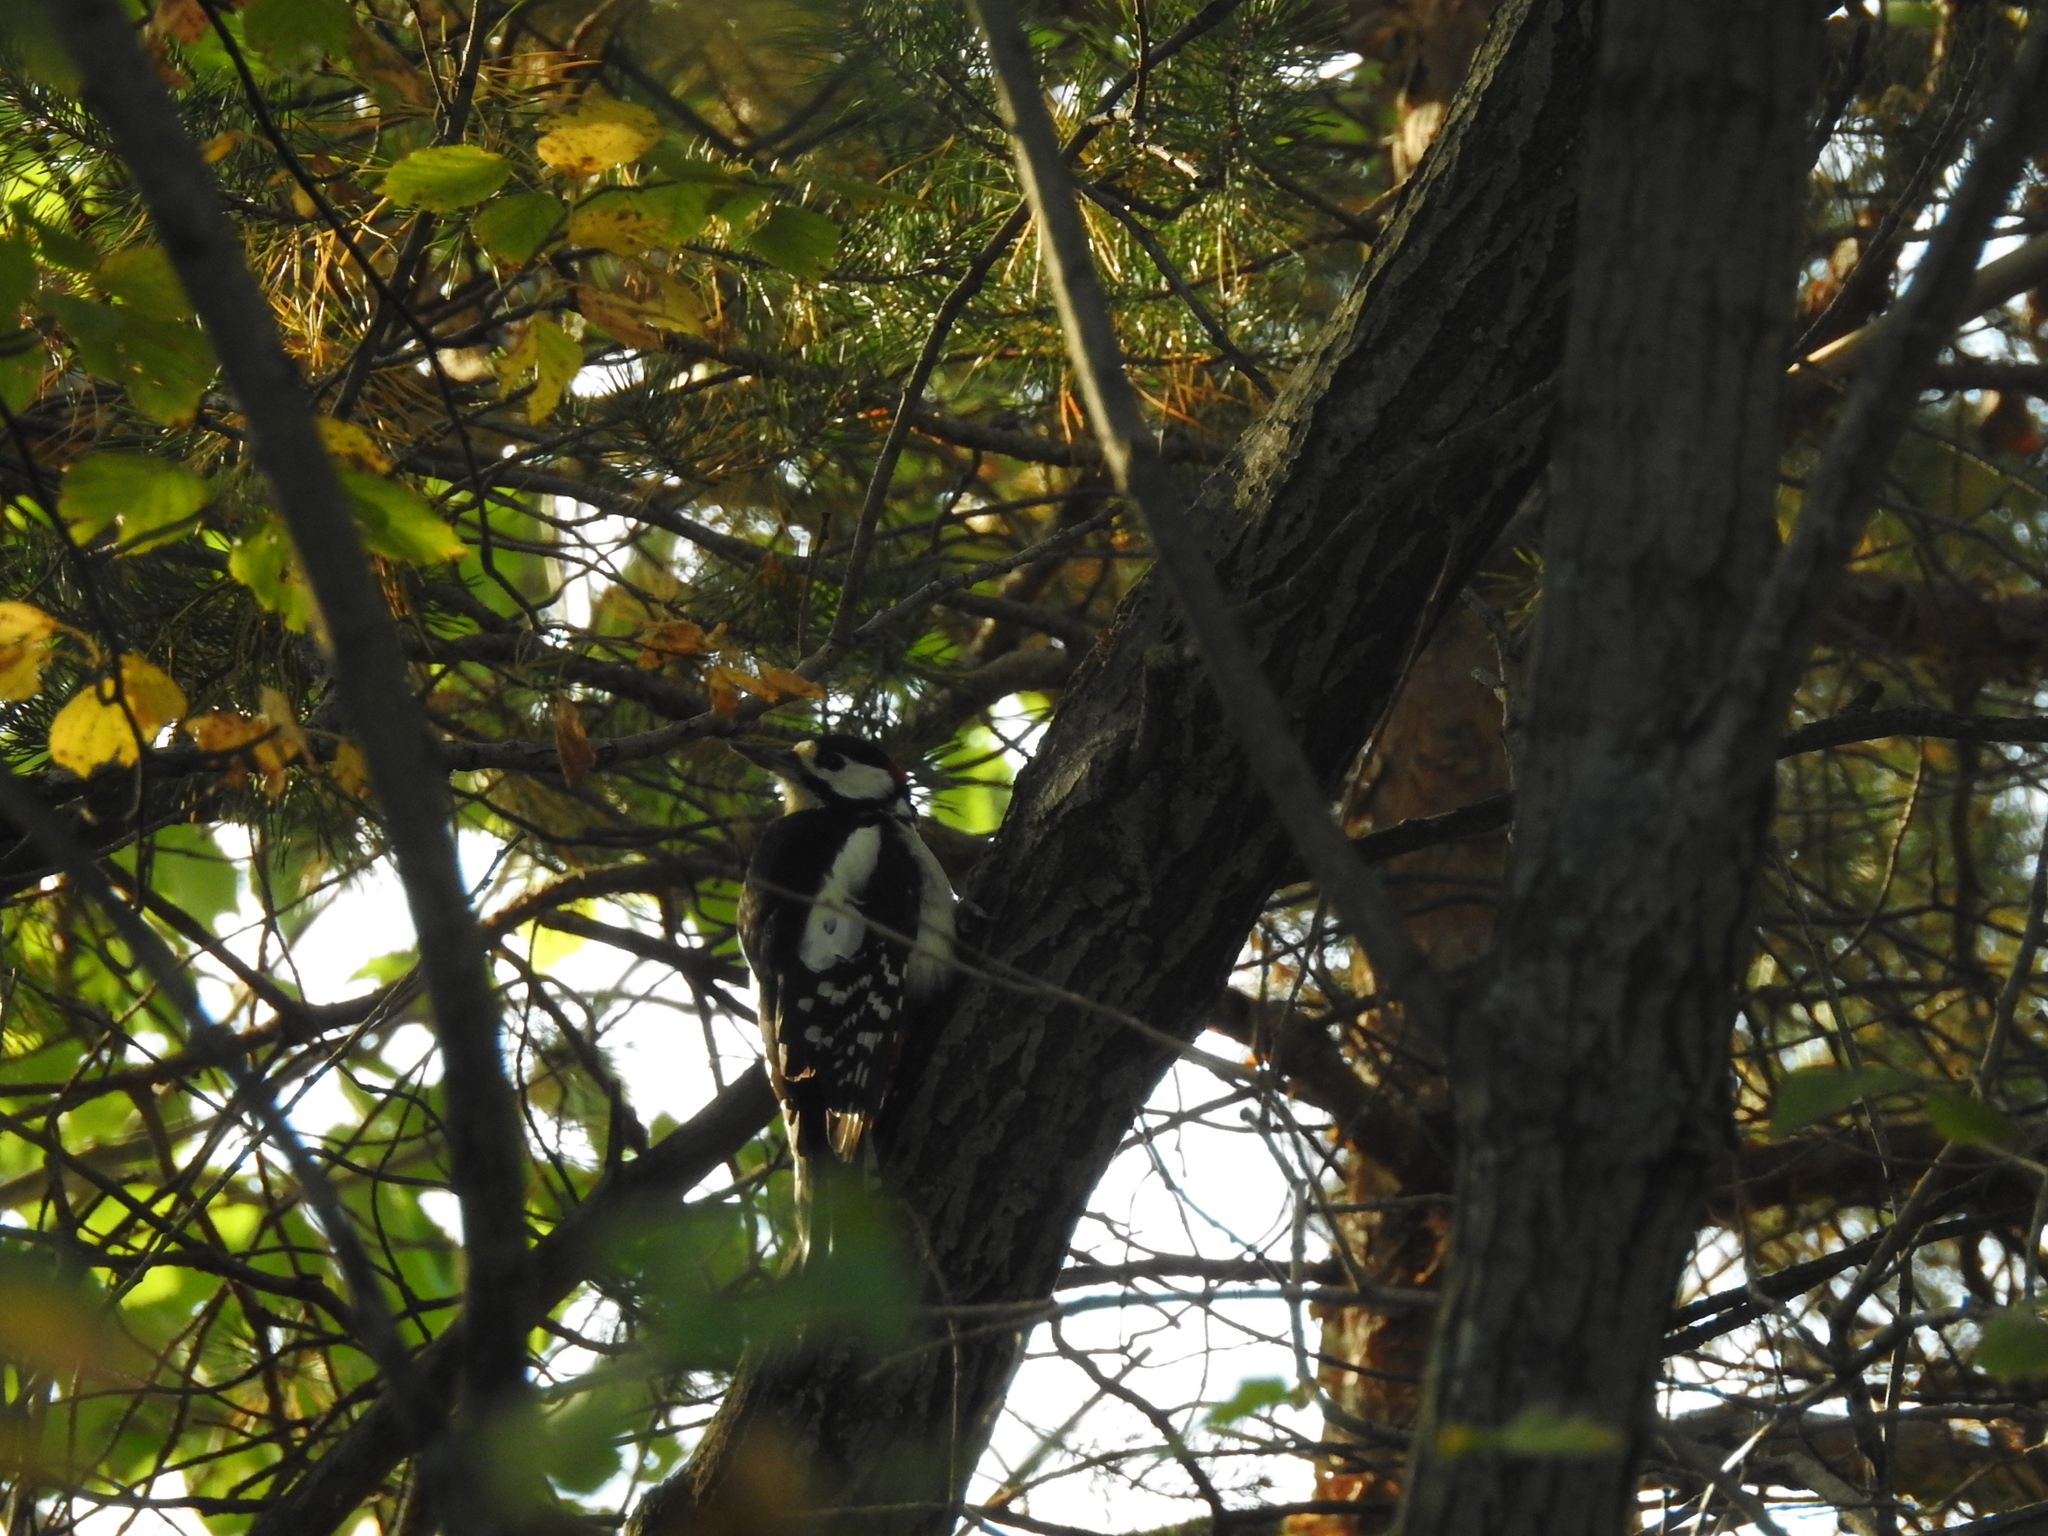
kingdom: Animalia
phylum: Chordata
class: Aves
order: Piciformes
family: Picidae
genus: Dendrocopos
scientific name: Dendrocopos major
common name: Great spotted woodpecker
